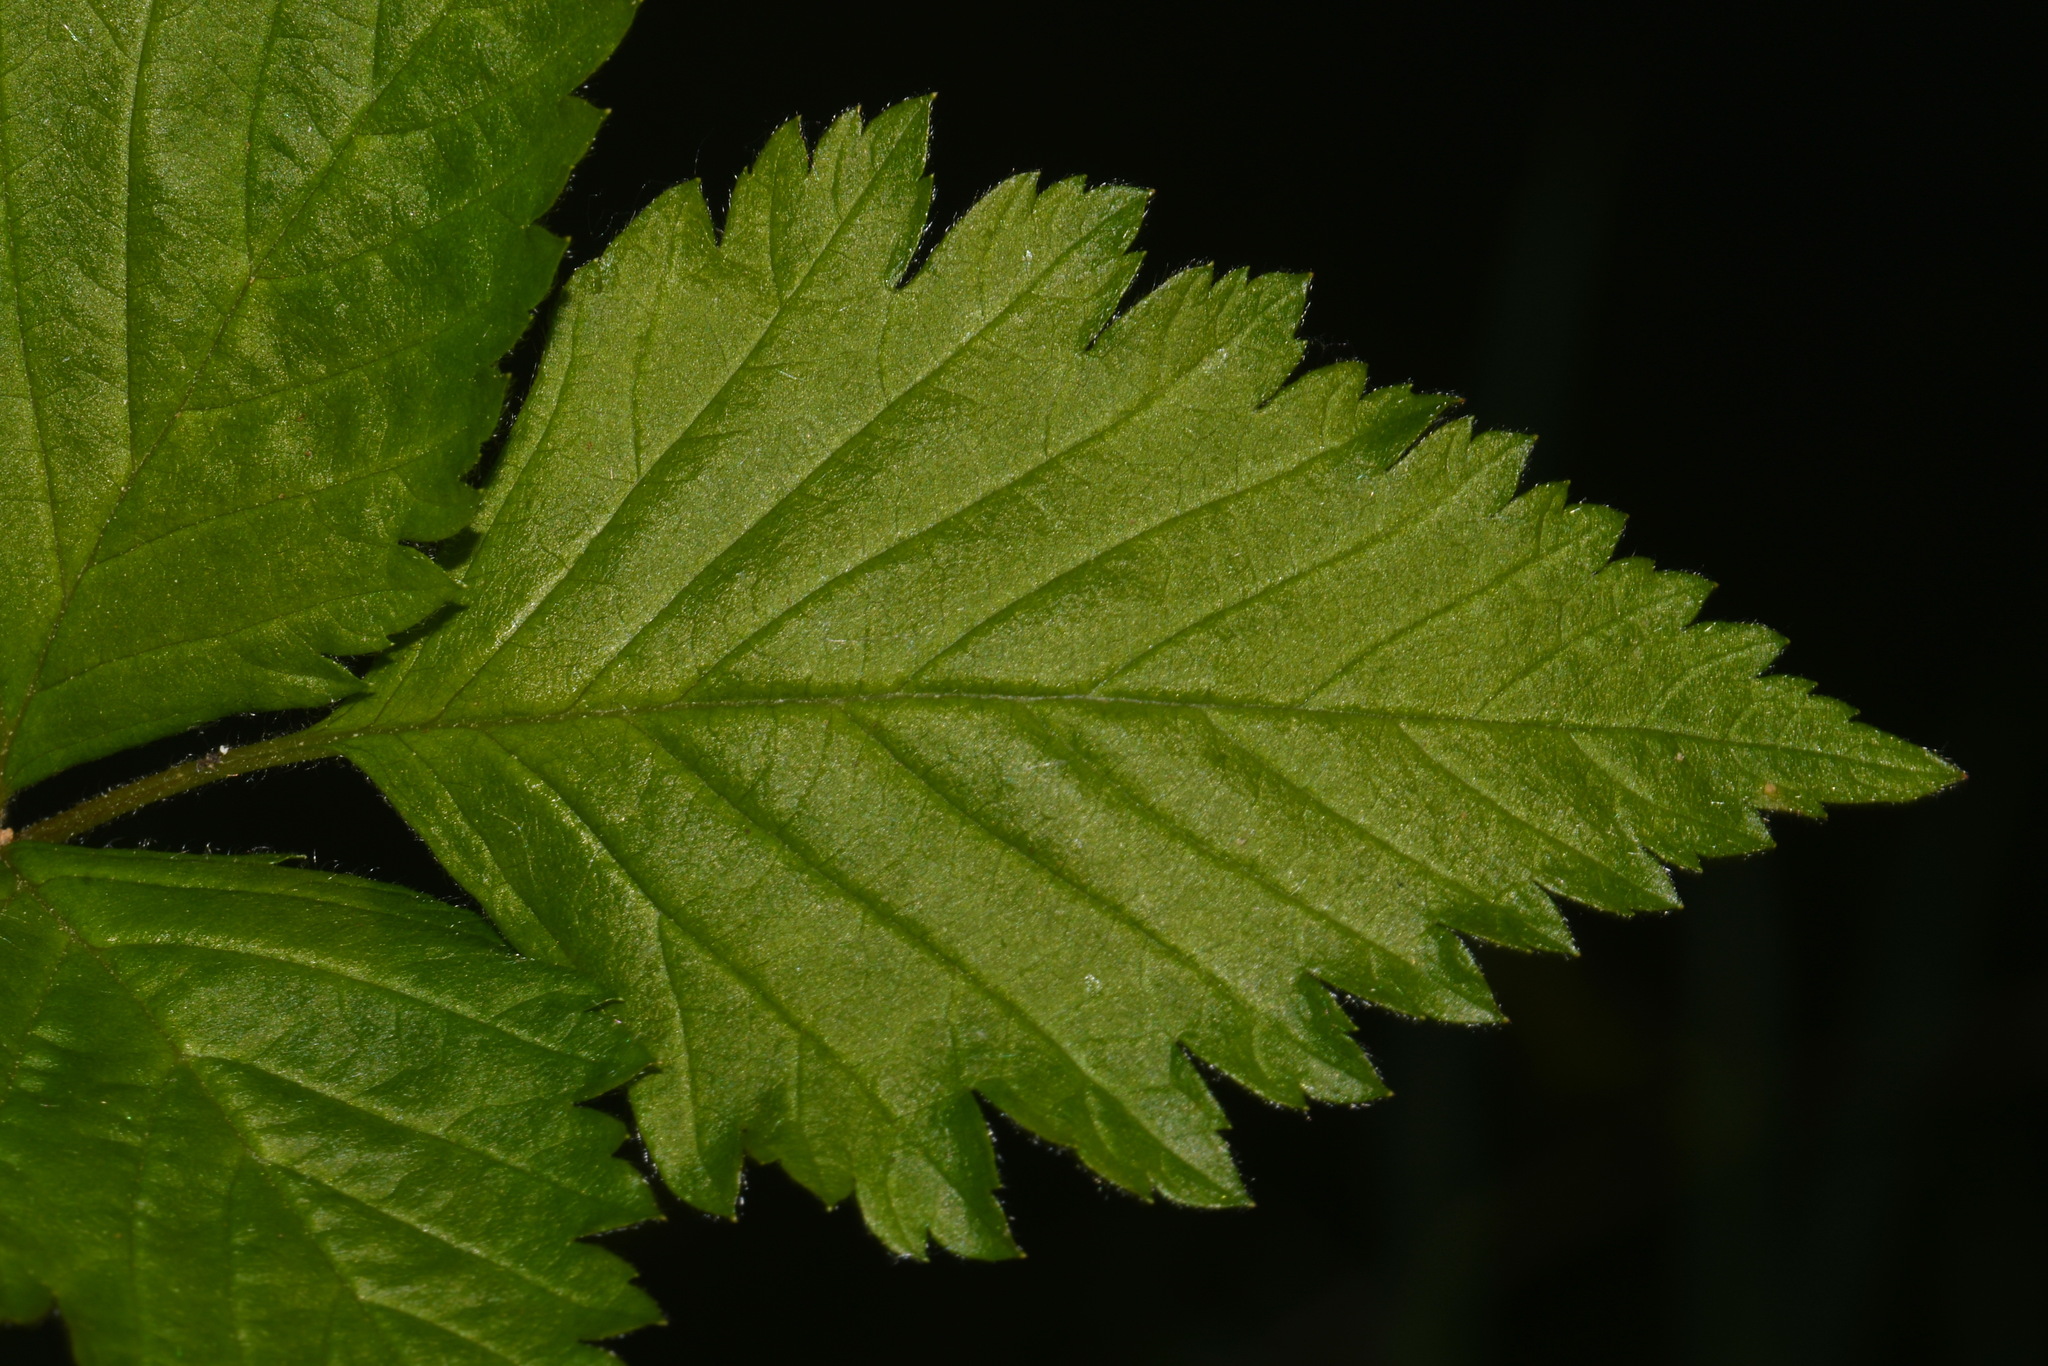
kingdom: Plantae
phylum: Tracheophyta
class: Magnoliopsida
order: Rosales
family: Rosaceae
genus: Rubus
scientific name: Rubus pubescens
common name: Dwarf raspberry
